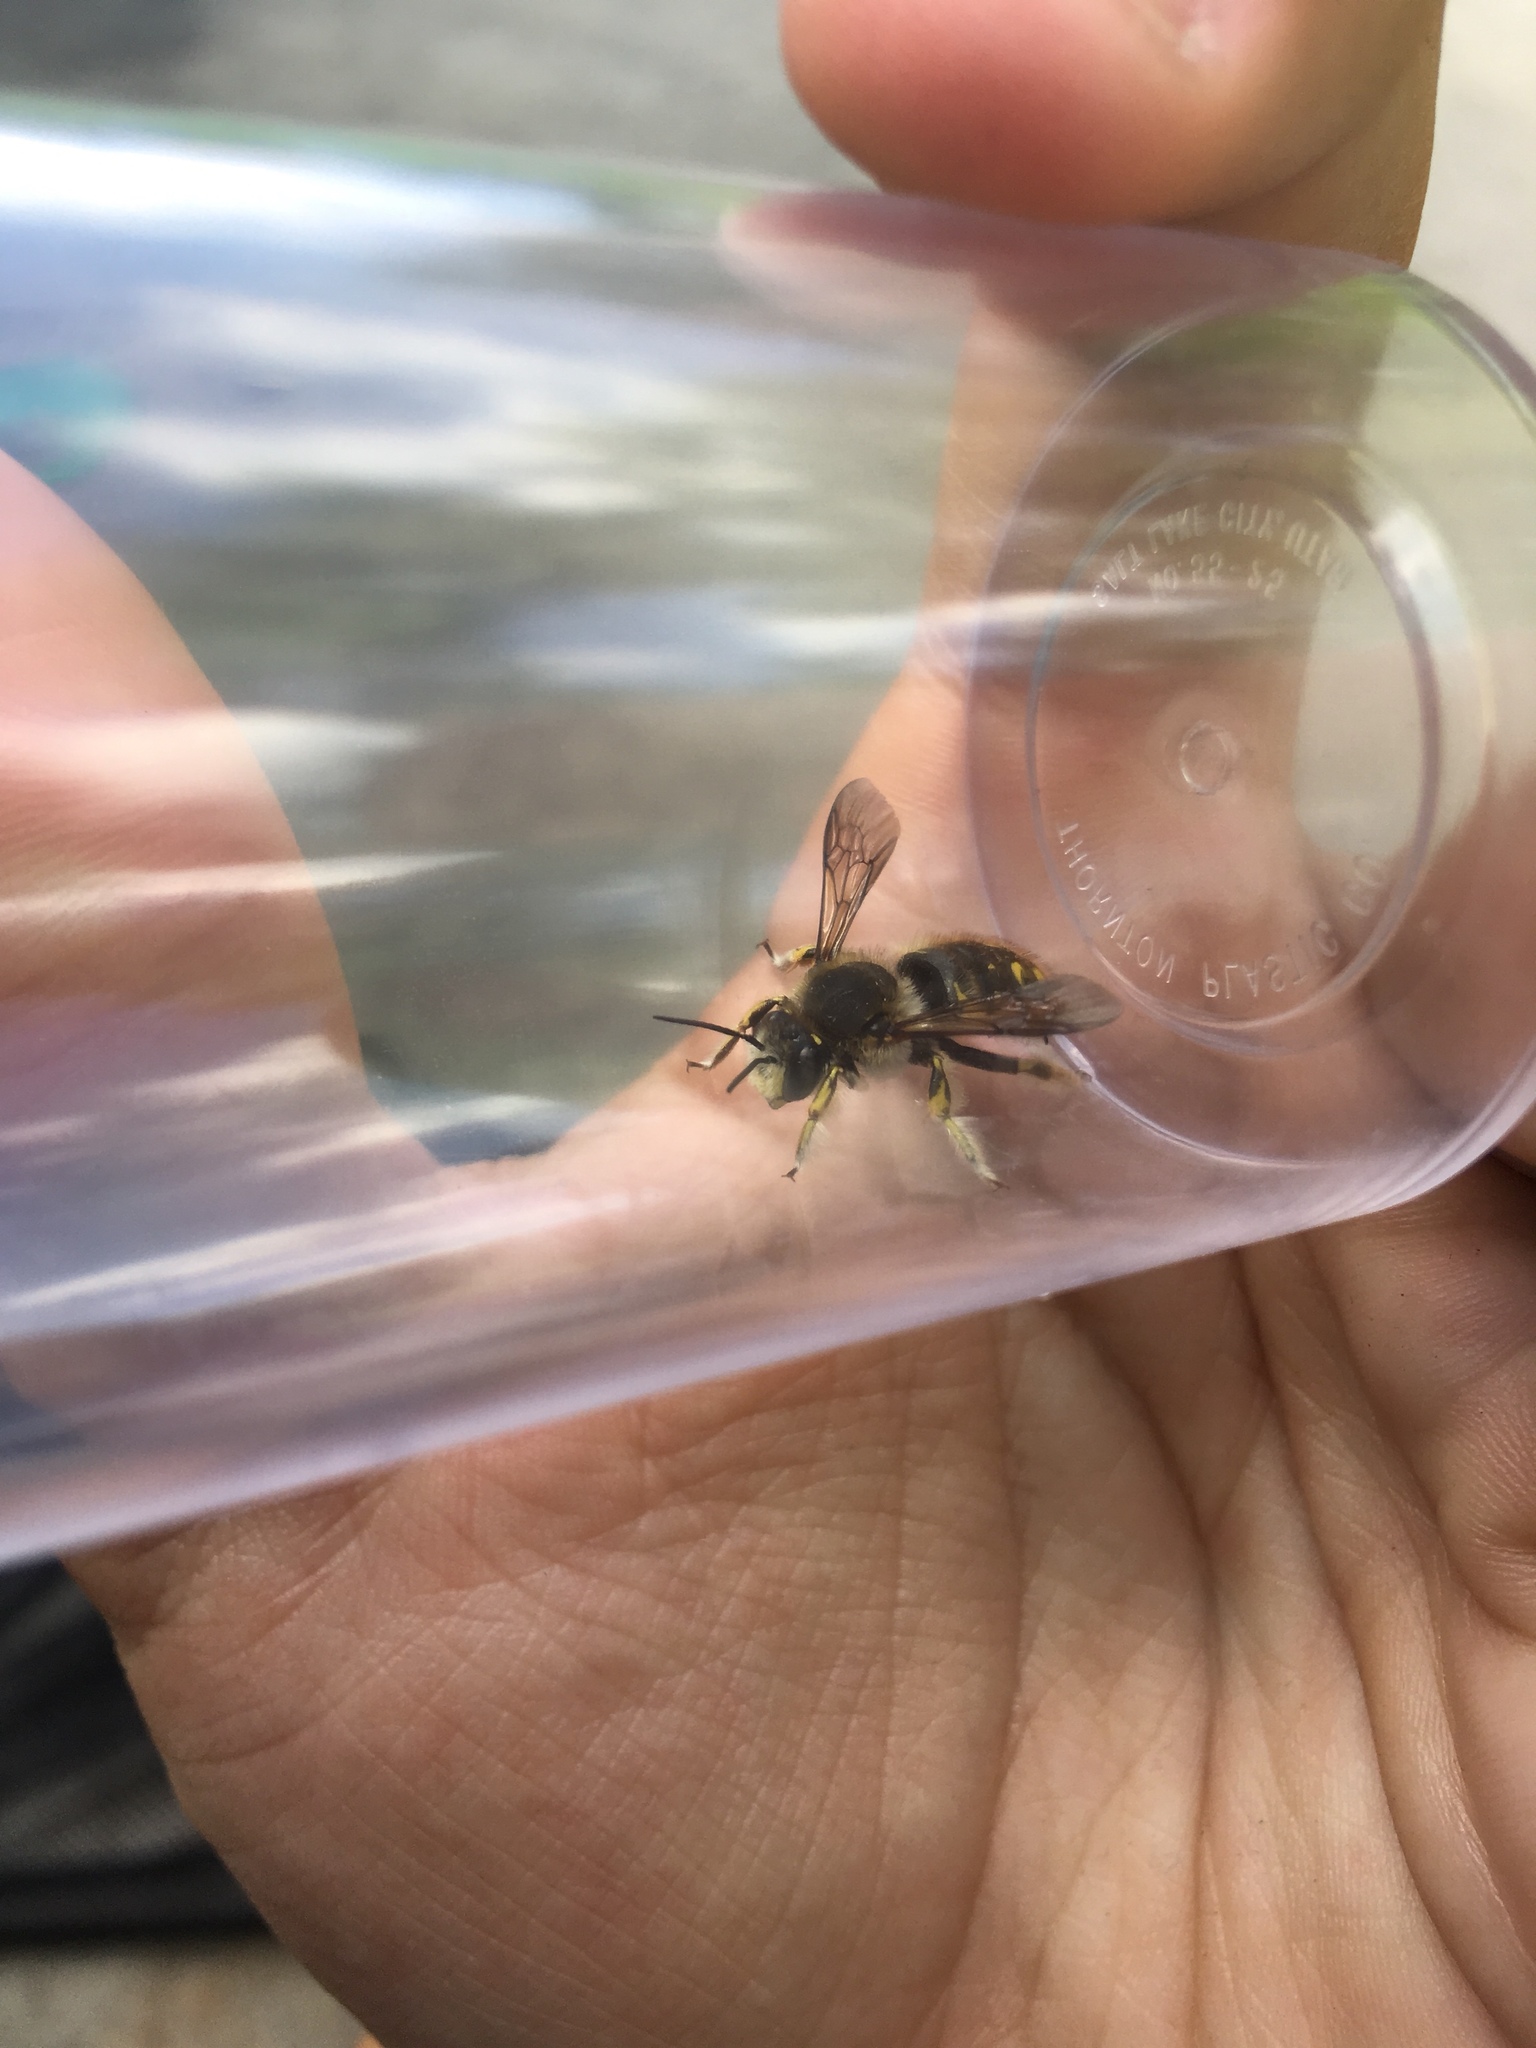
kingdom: Animalia
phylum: Arthropoda
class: Insecta
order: Hymenoptera
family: Megachilidae
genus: Anthidium
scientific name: Anthidium manicatum
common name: Wool carder bee
